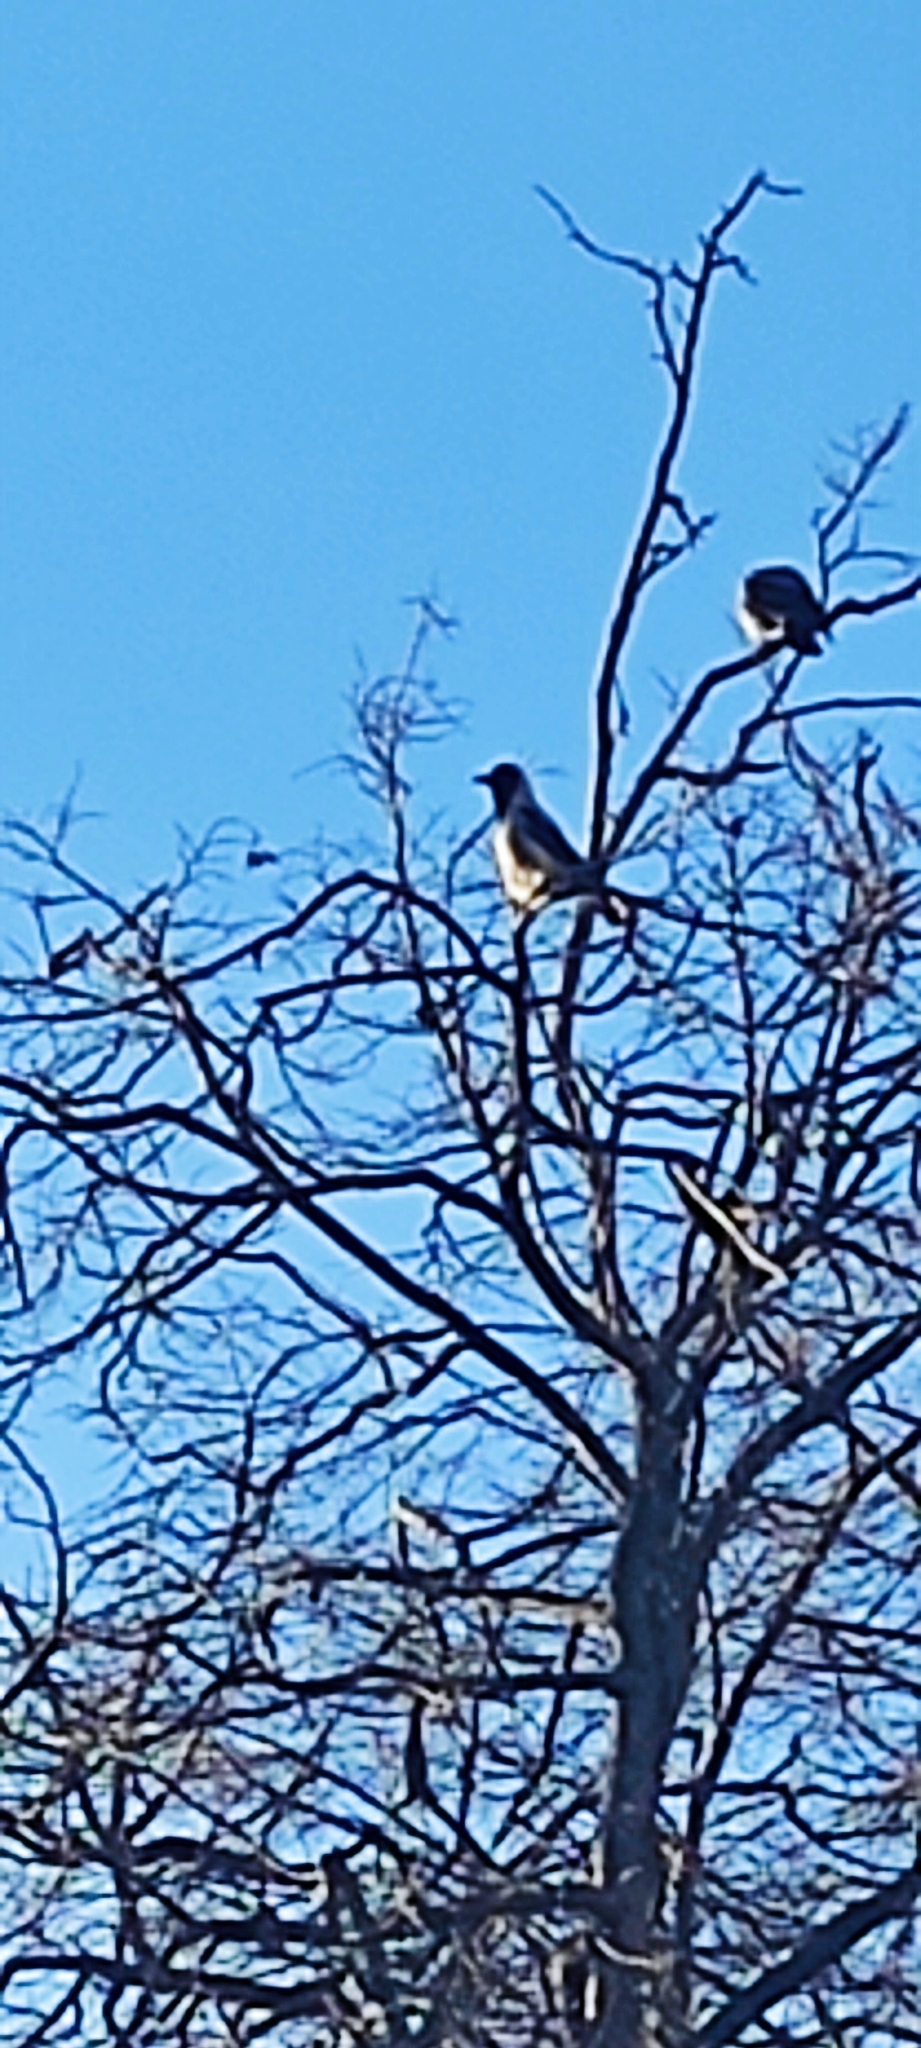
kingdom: Animalia
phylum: Chordata
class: Aves
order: Passeriformes
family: Corvidae
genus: Corvus
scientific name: Corvus cornix
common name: Hooded crow
